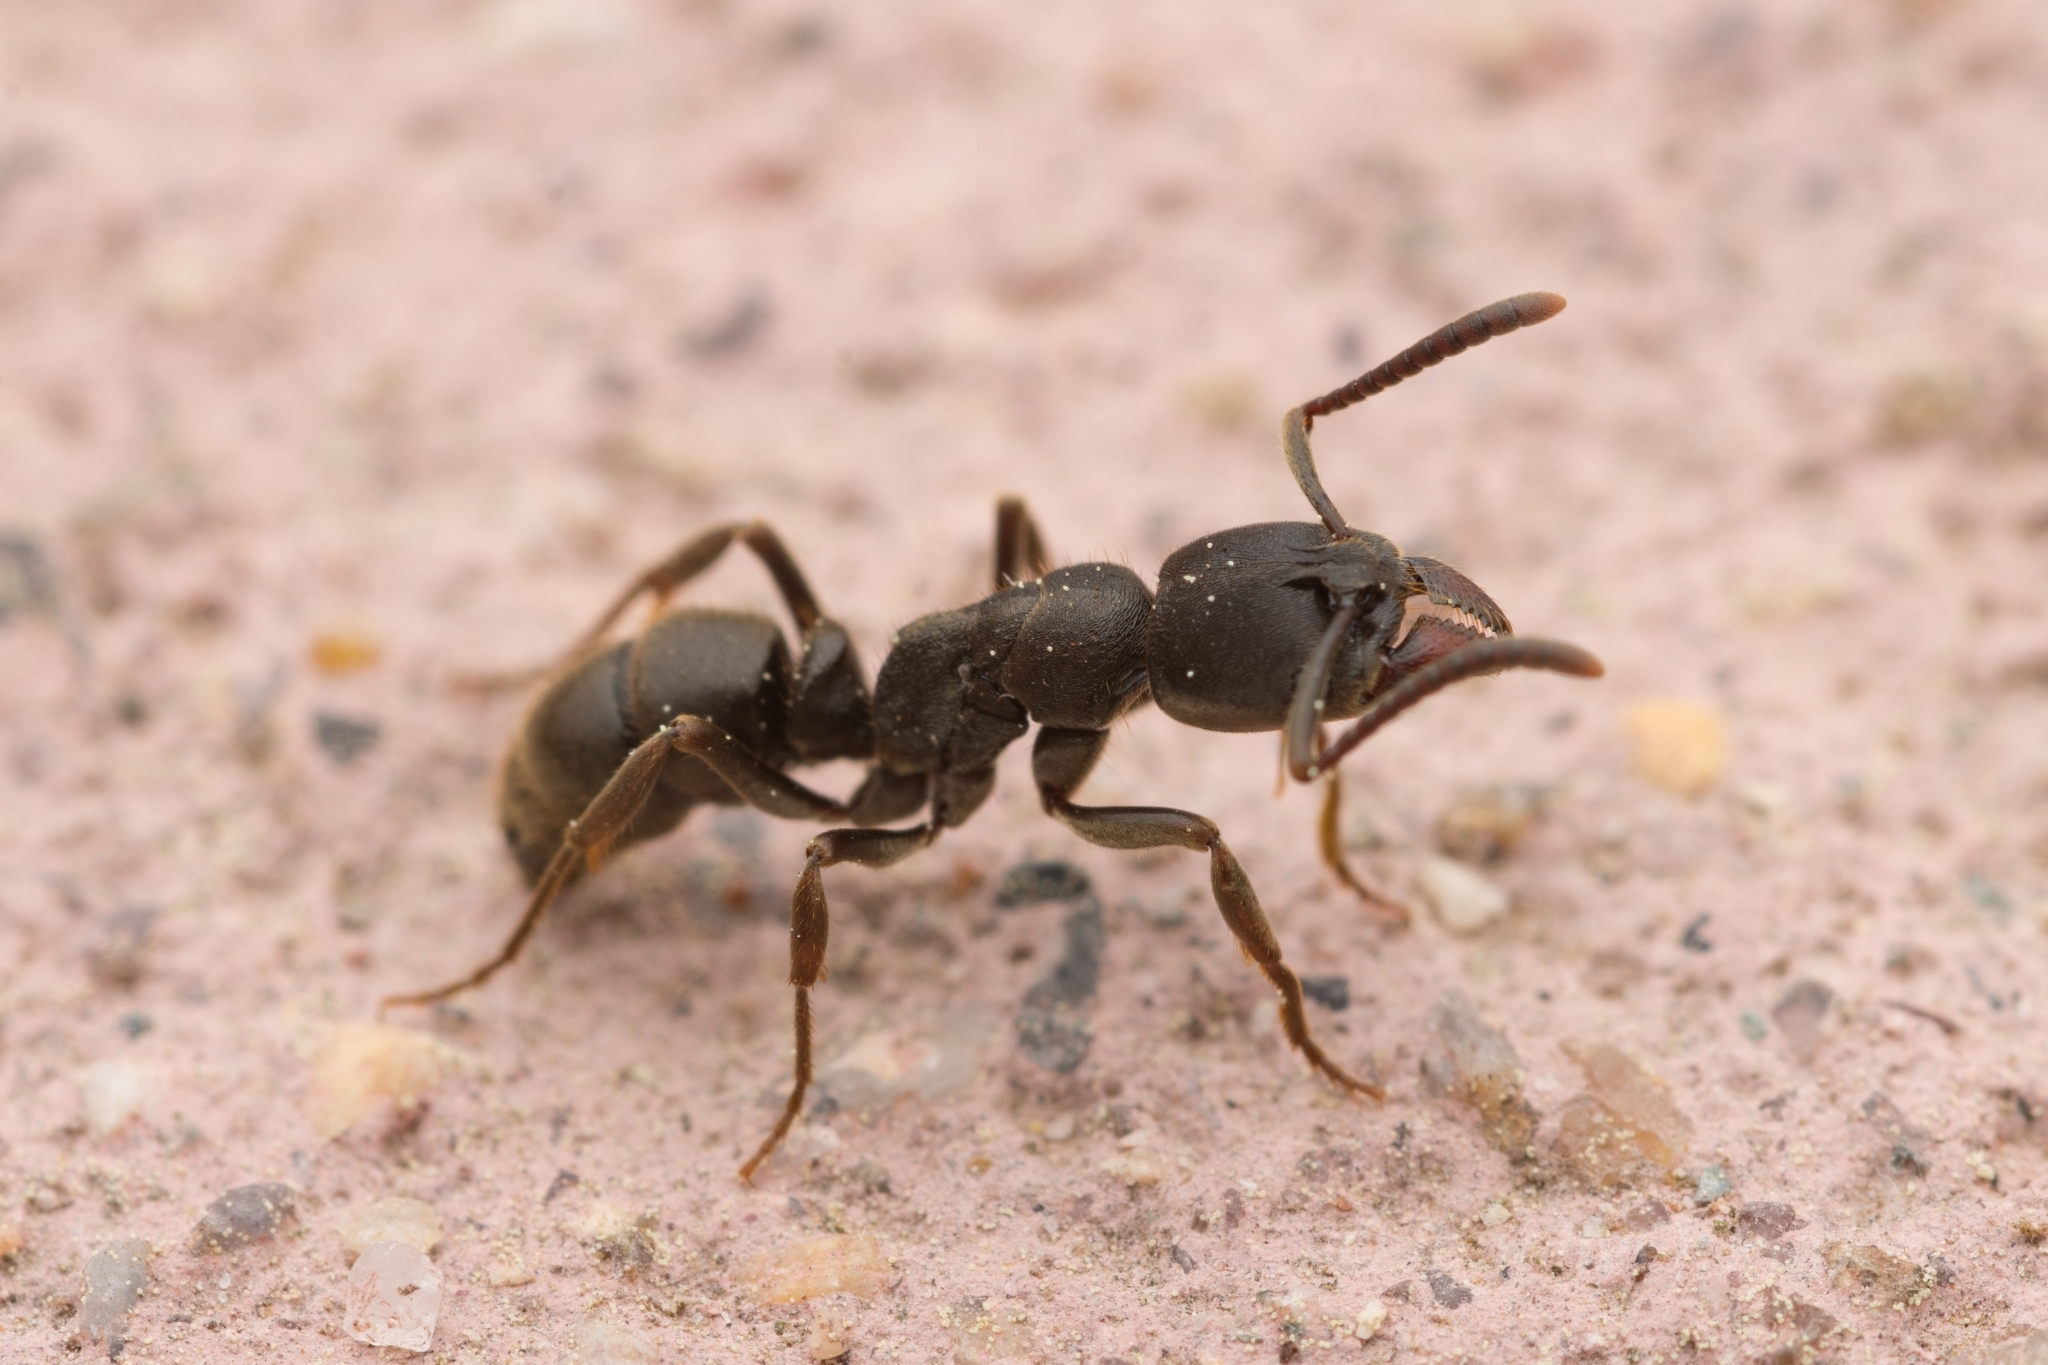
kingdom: Animalia
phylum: Arthropoda
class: Insecta
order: Hymenoptera
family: Formicidae
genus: Ectomomyrmex
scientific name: Ectomomyrmex javanus
